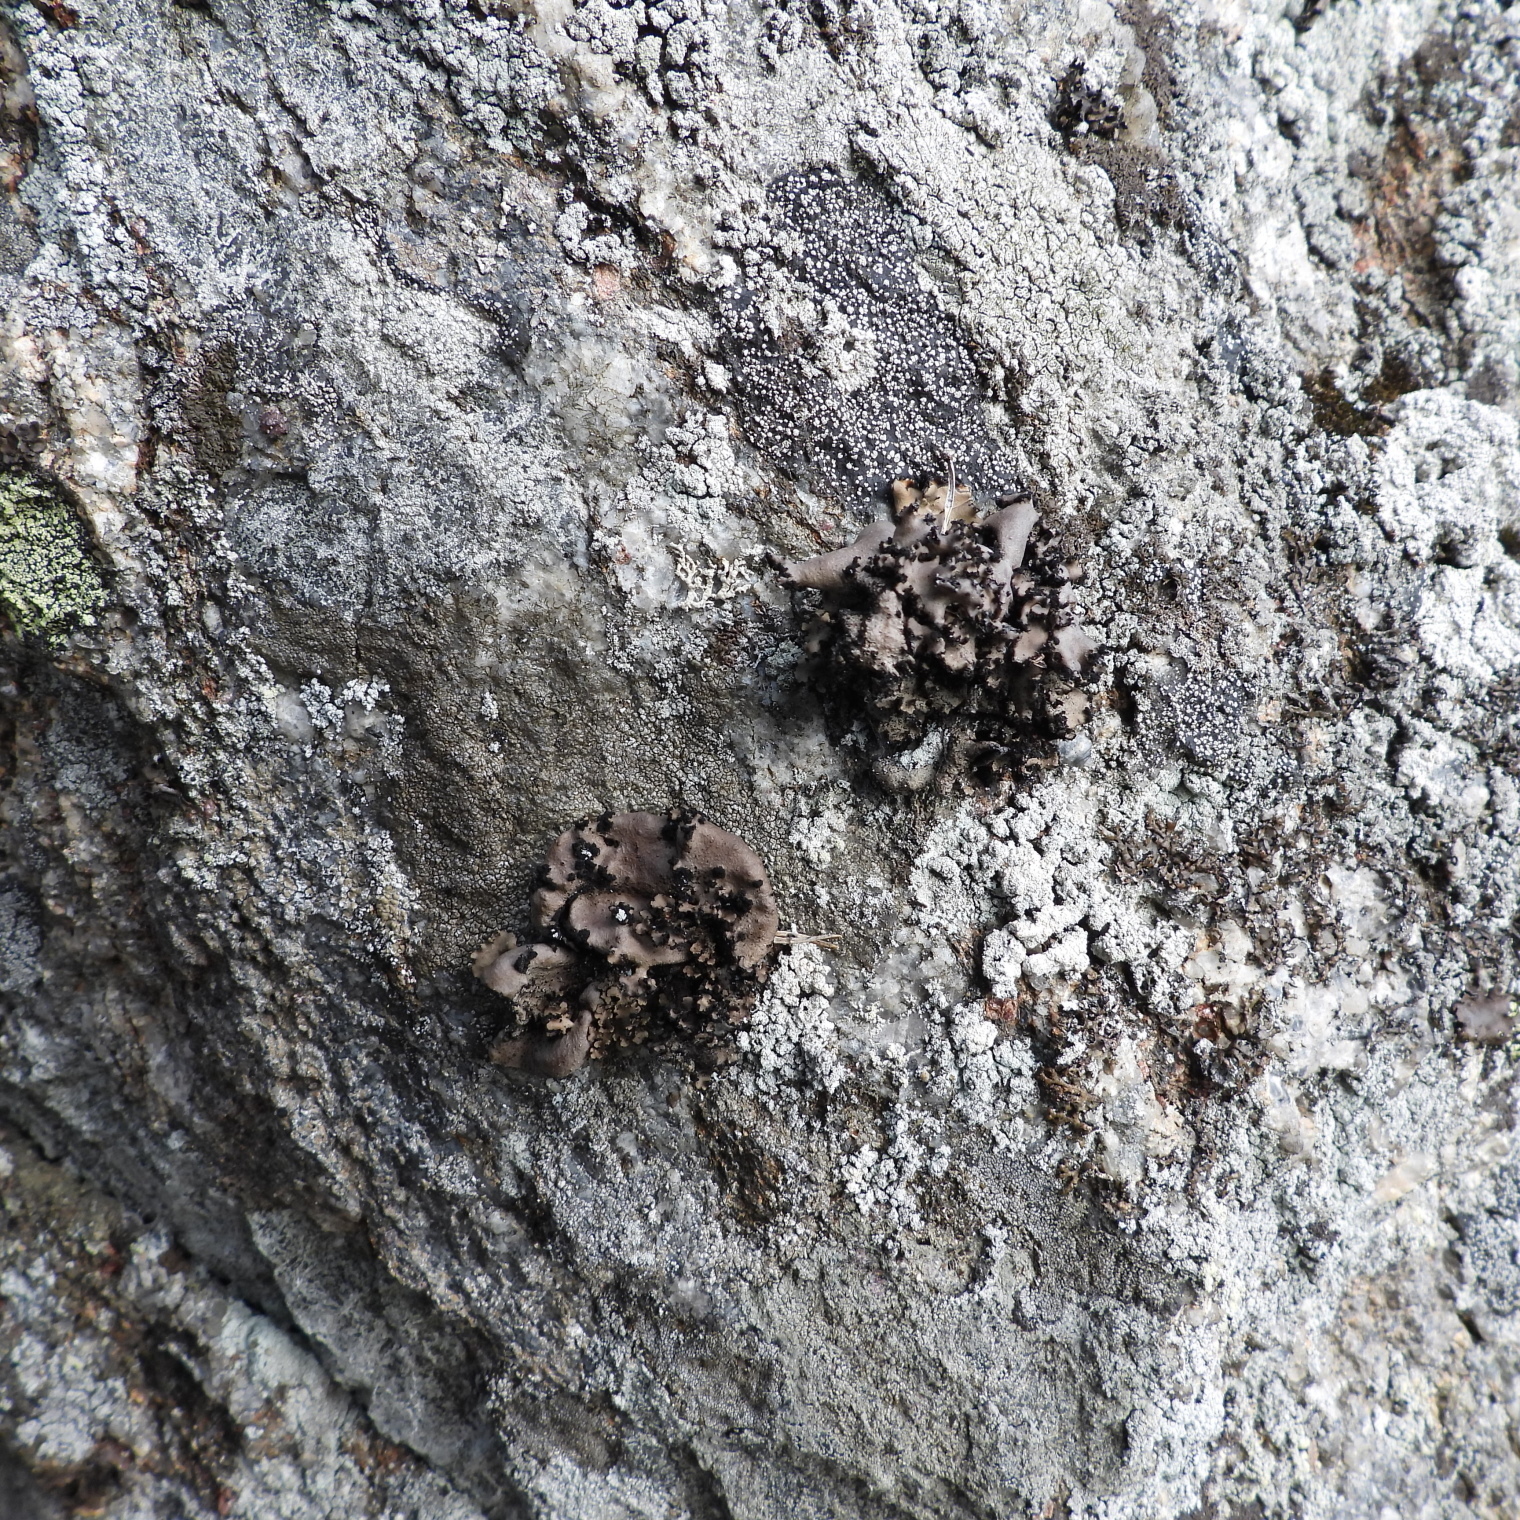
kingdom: Fungi
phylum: Ascomycota
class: Lecanoromycetes
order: Umbilicariales
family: Umbilicariaceae
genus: Umbilicaria
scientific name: Umbilicaria polyrrhiza
